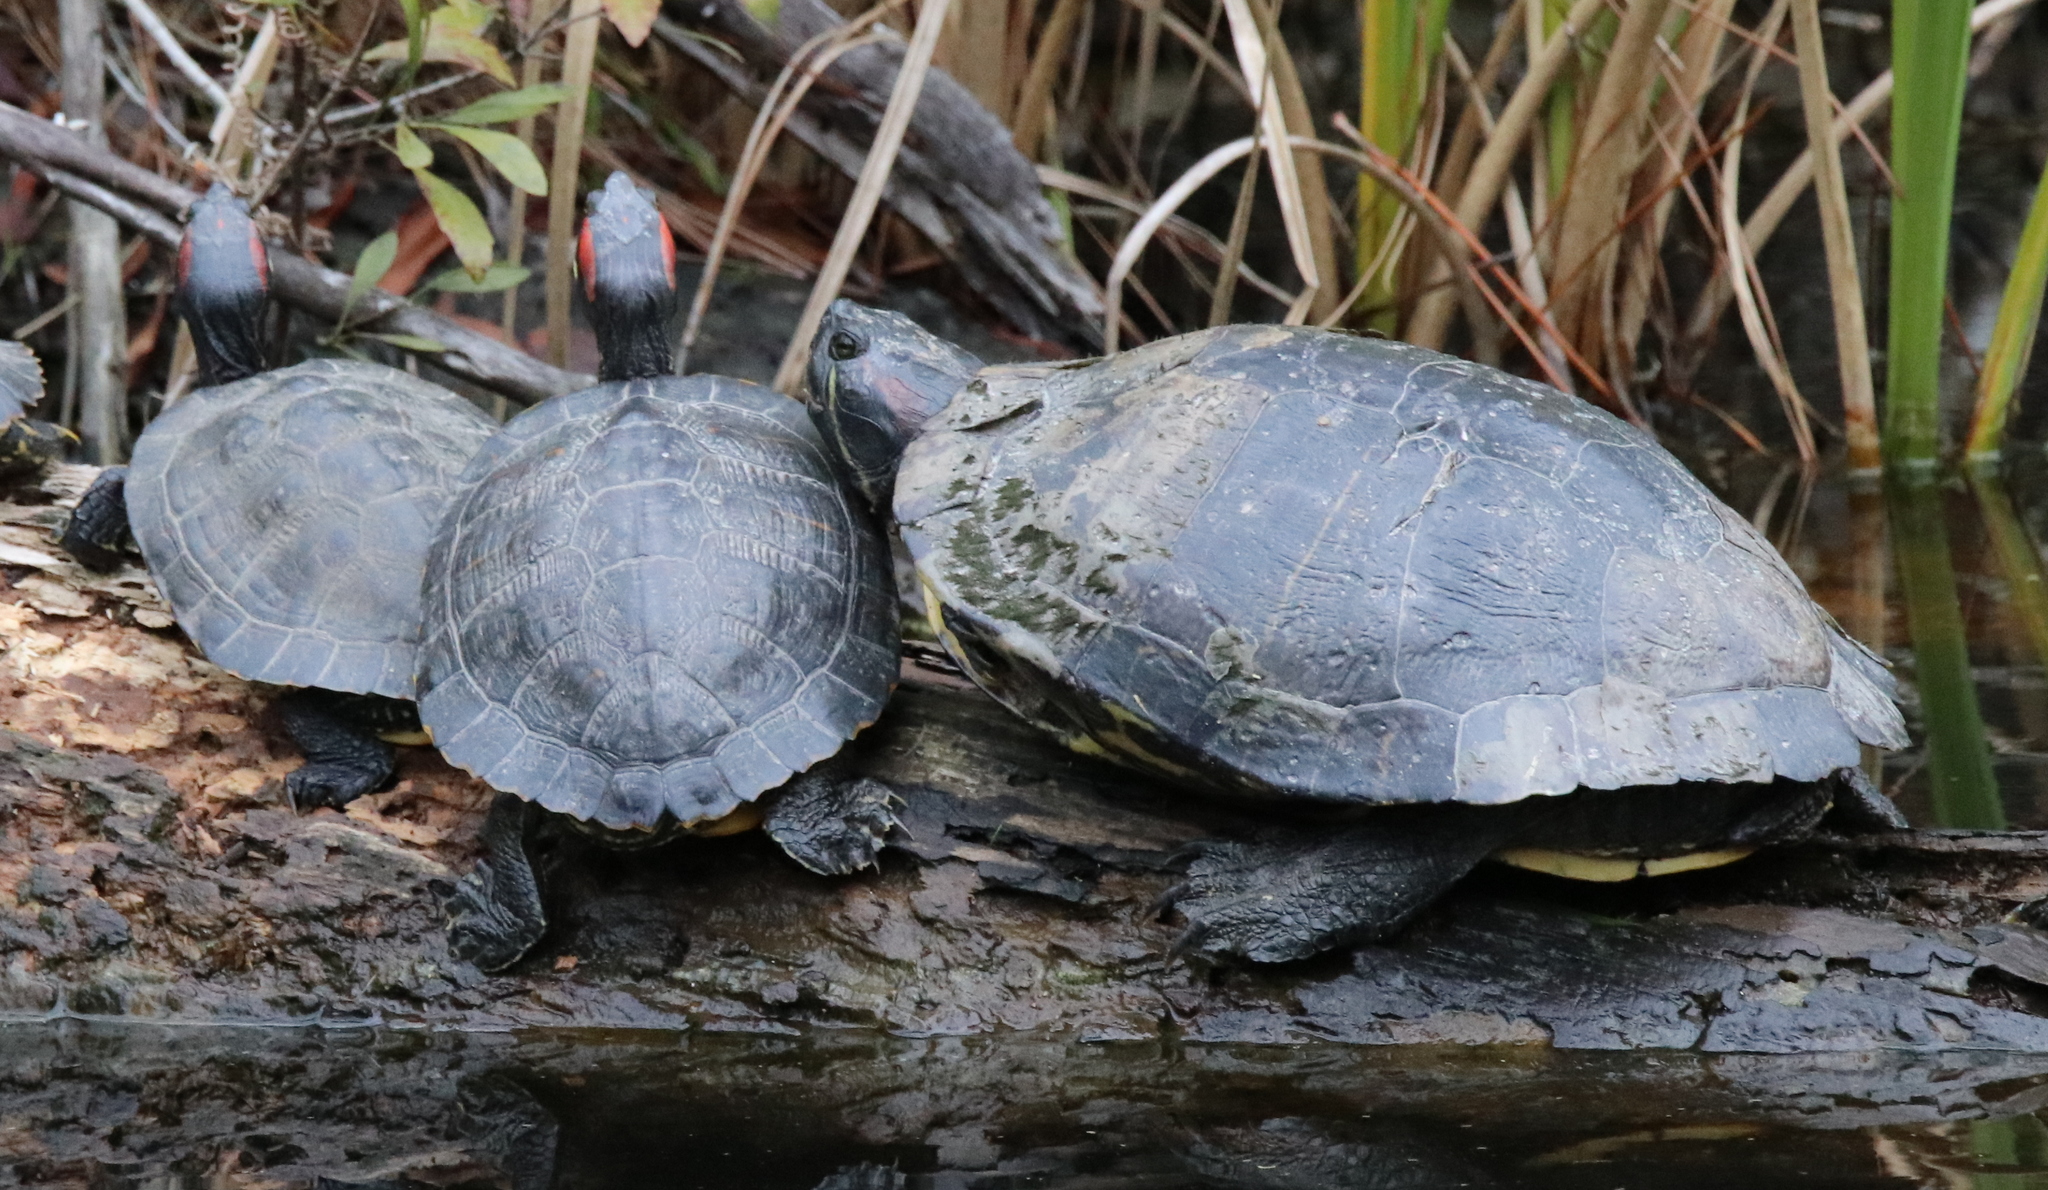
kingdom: Animalia
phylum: Chordata
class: Testudines
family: Emydidae
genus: Trachemys
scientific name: Trachemys scripta
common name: Slider
